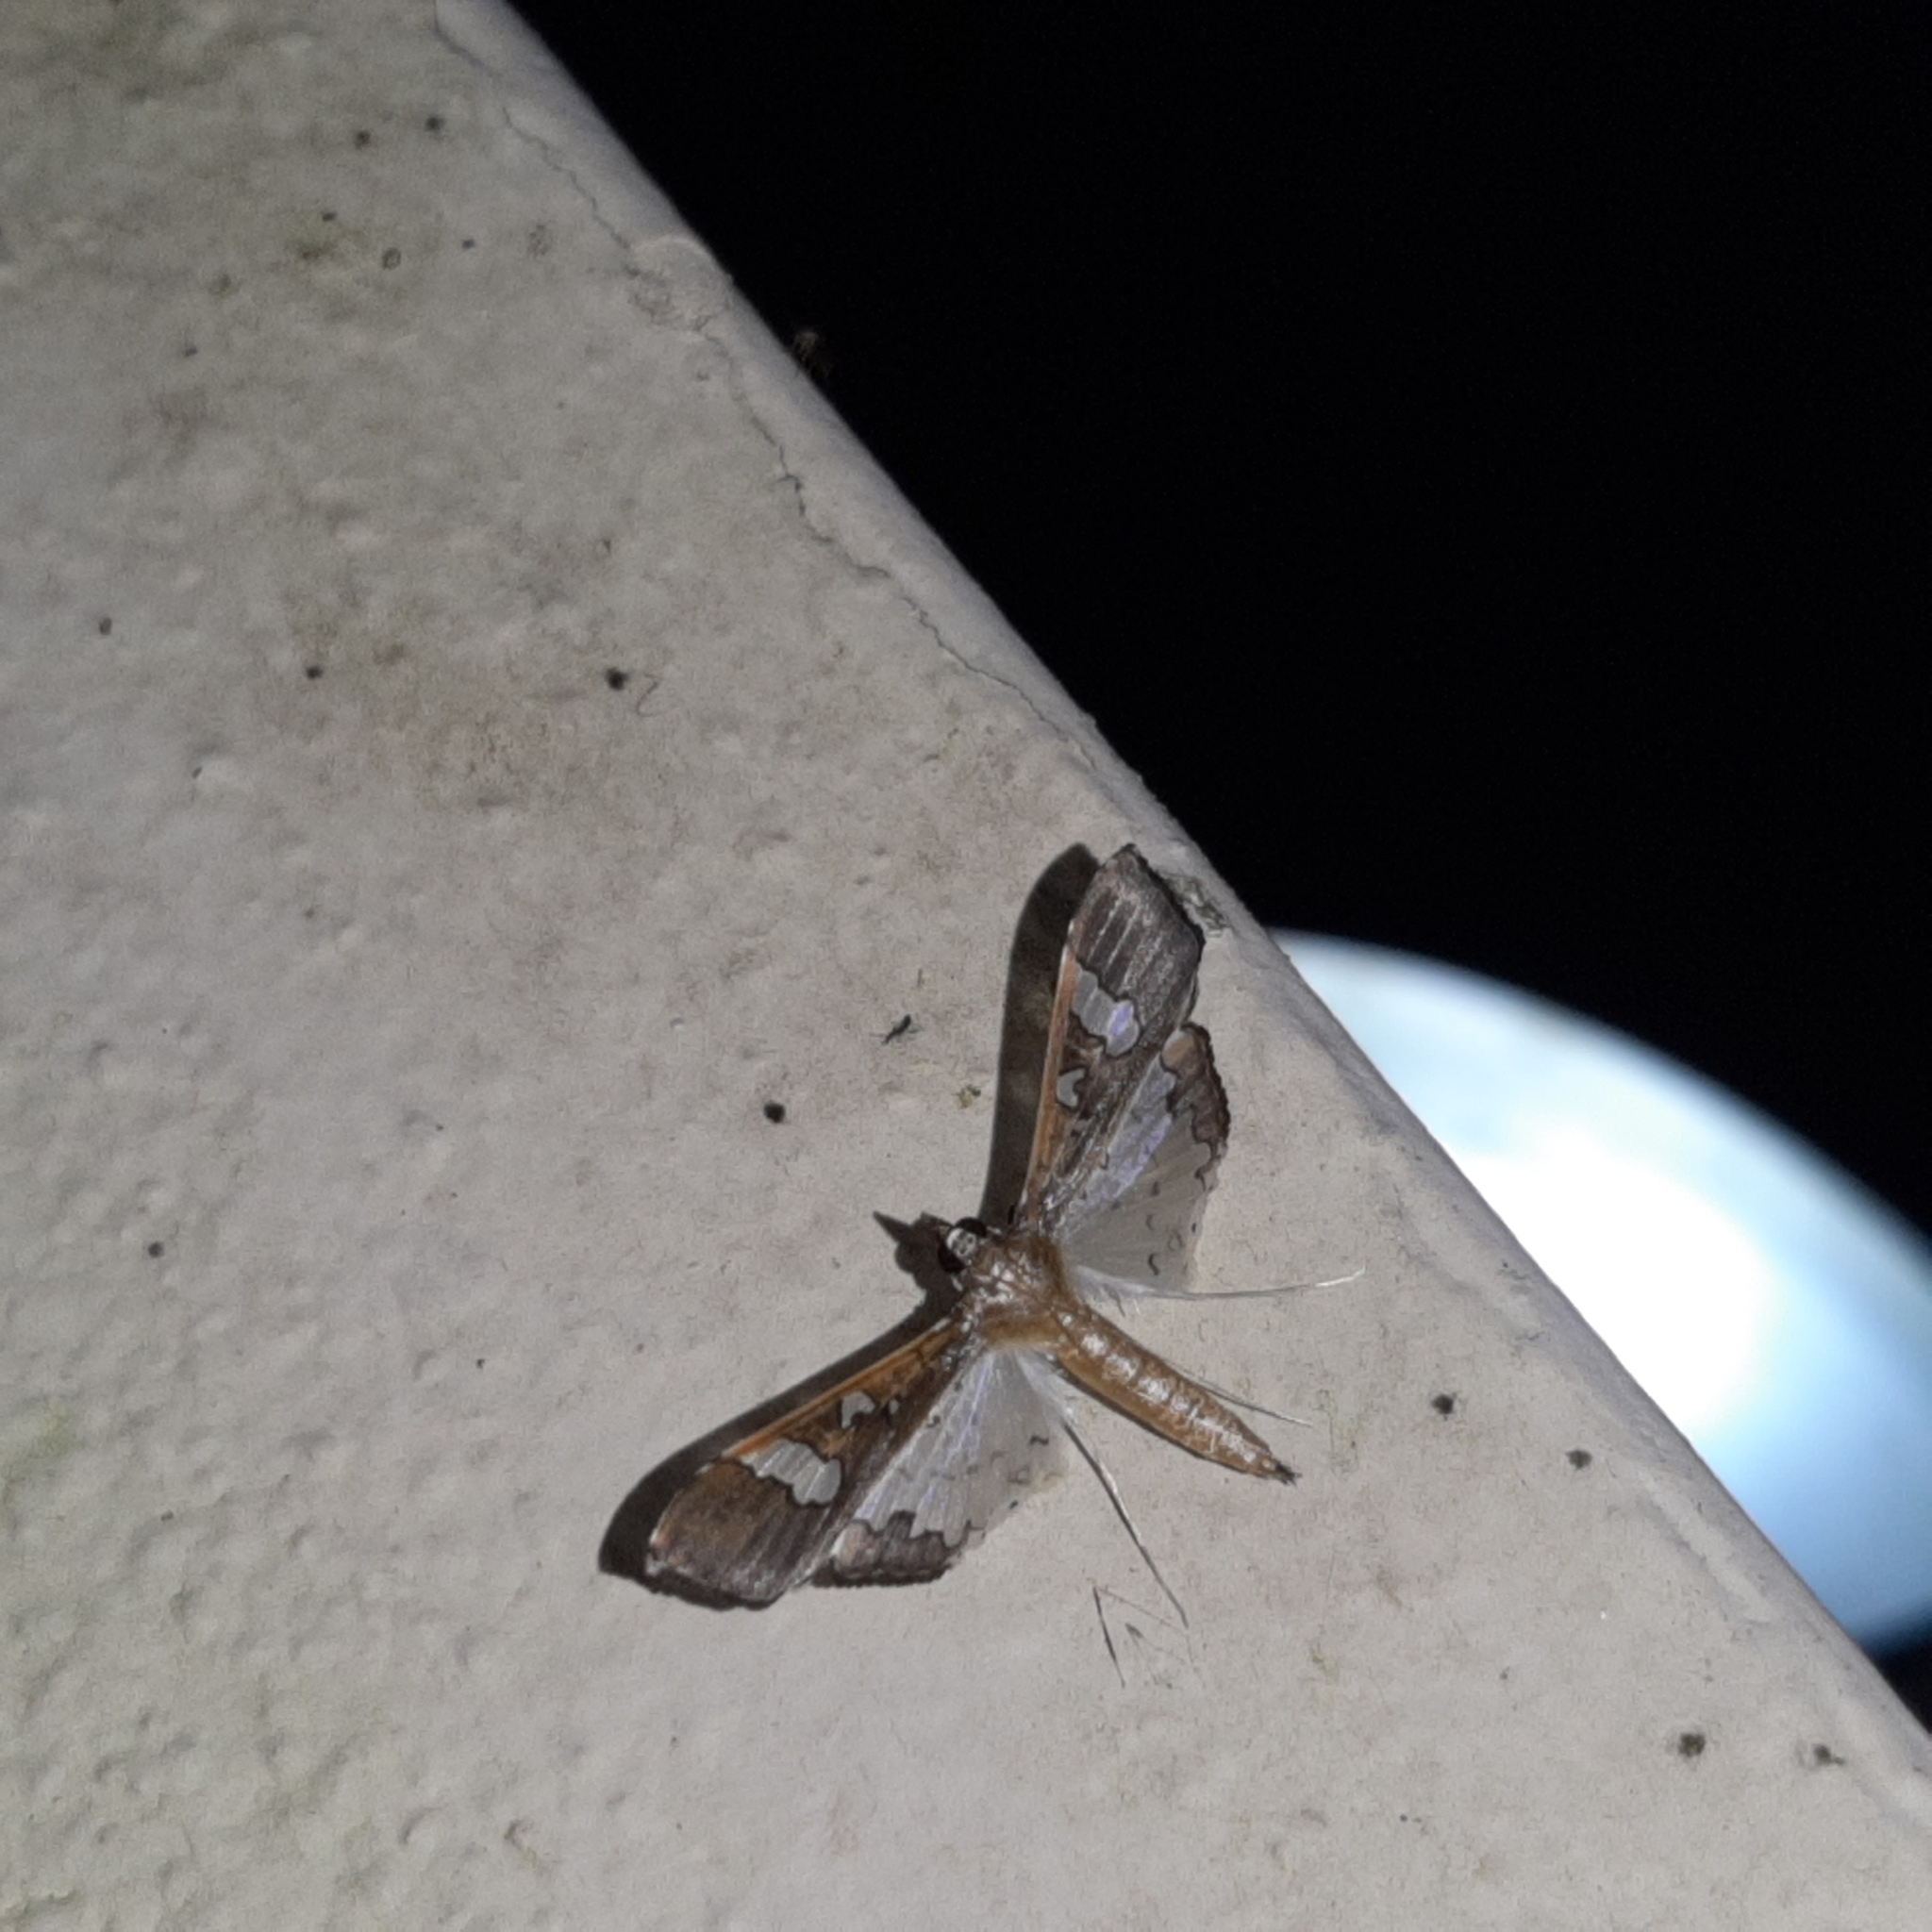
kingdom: Animalia
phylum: Arthropoda
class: Insecta
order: Lepidoptera
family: Crambidae
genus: Maruca
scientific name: Maruca vitrata
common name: Maruca pod borer
